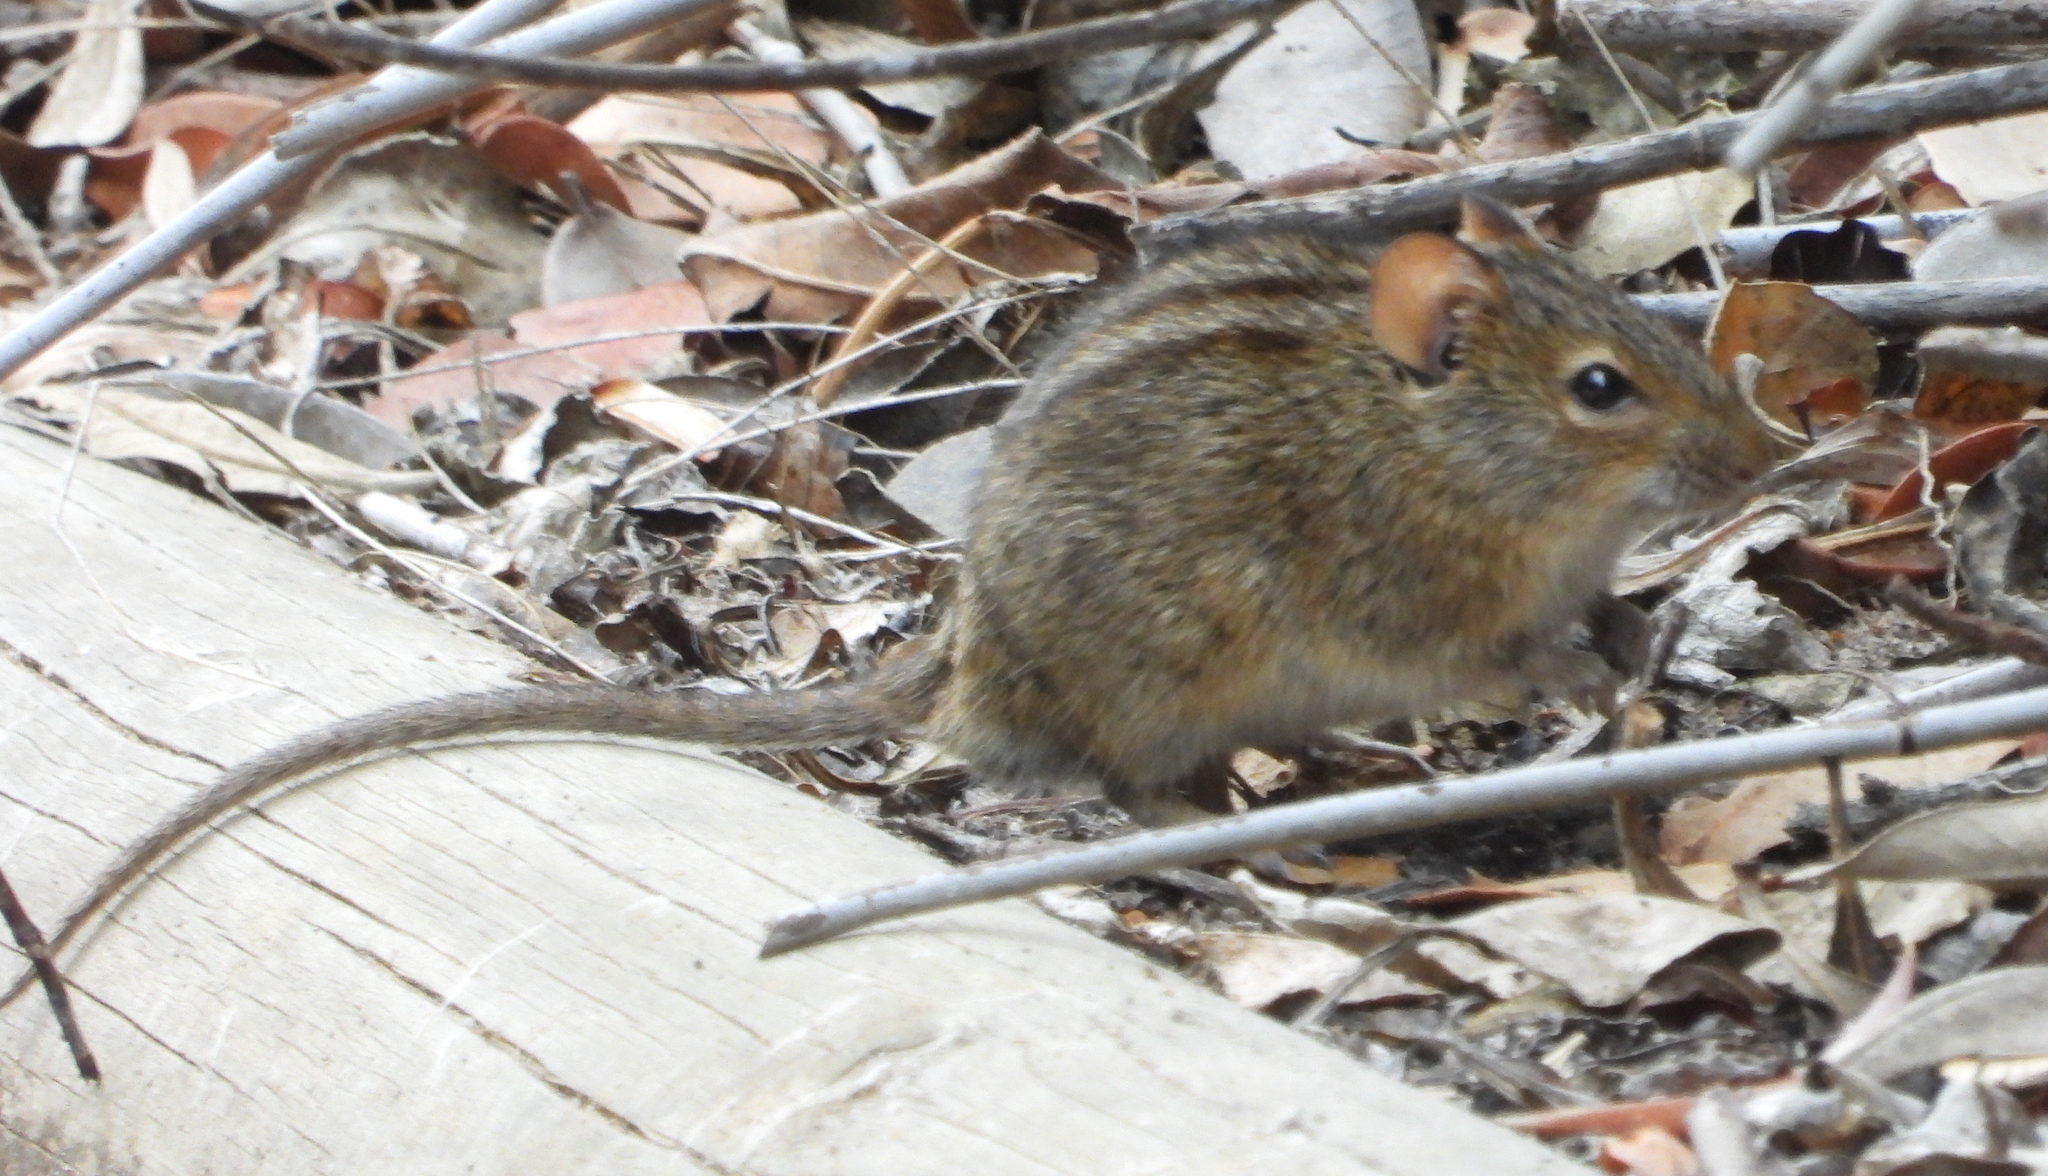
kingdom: Animalia
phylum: Chordata
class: Mammalia
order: Rodentia
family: Muridae
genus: Rhabdomys
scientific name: Rhabdomys pumilio
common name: Xeric four-striped grass rat
